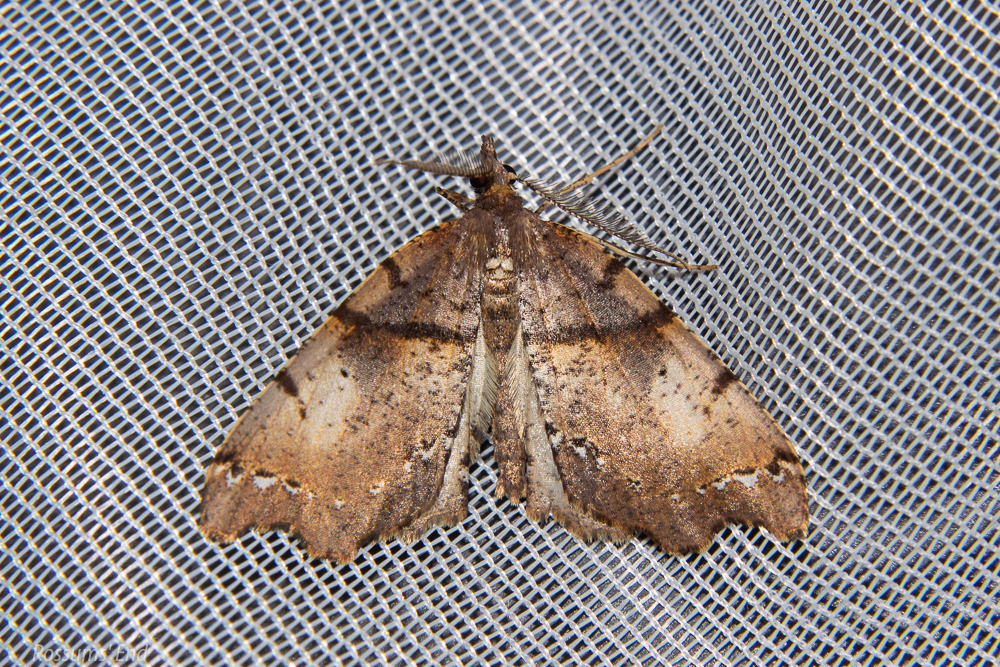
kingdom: Animalia
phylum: Arthropoda
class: Insecta
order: Lepidoptera
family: Geometridae
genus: Chalastra
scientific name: Chalastra pellurgata
